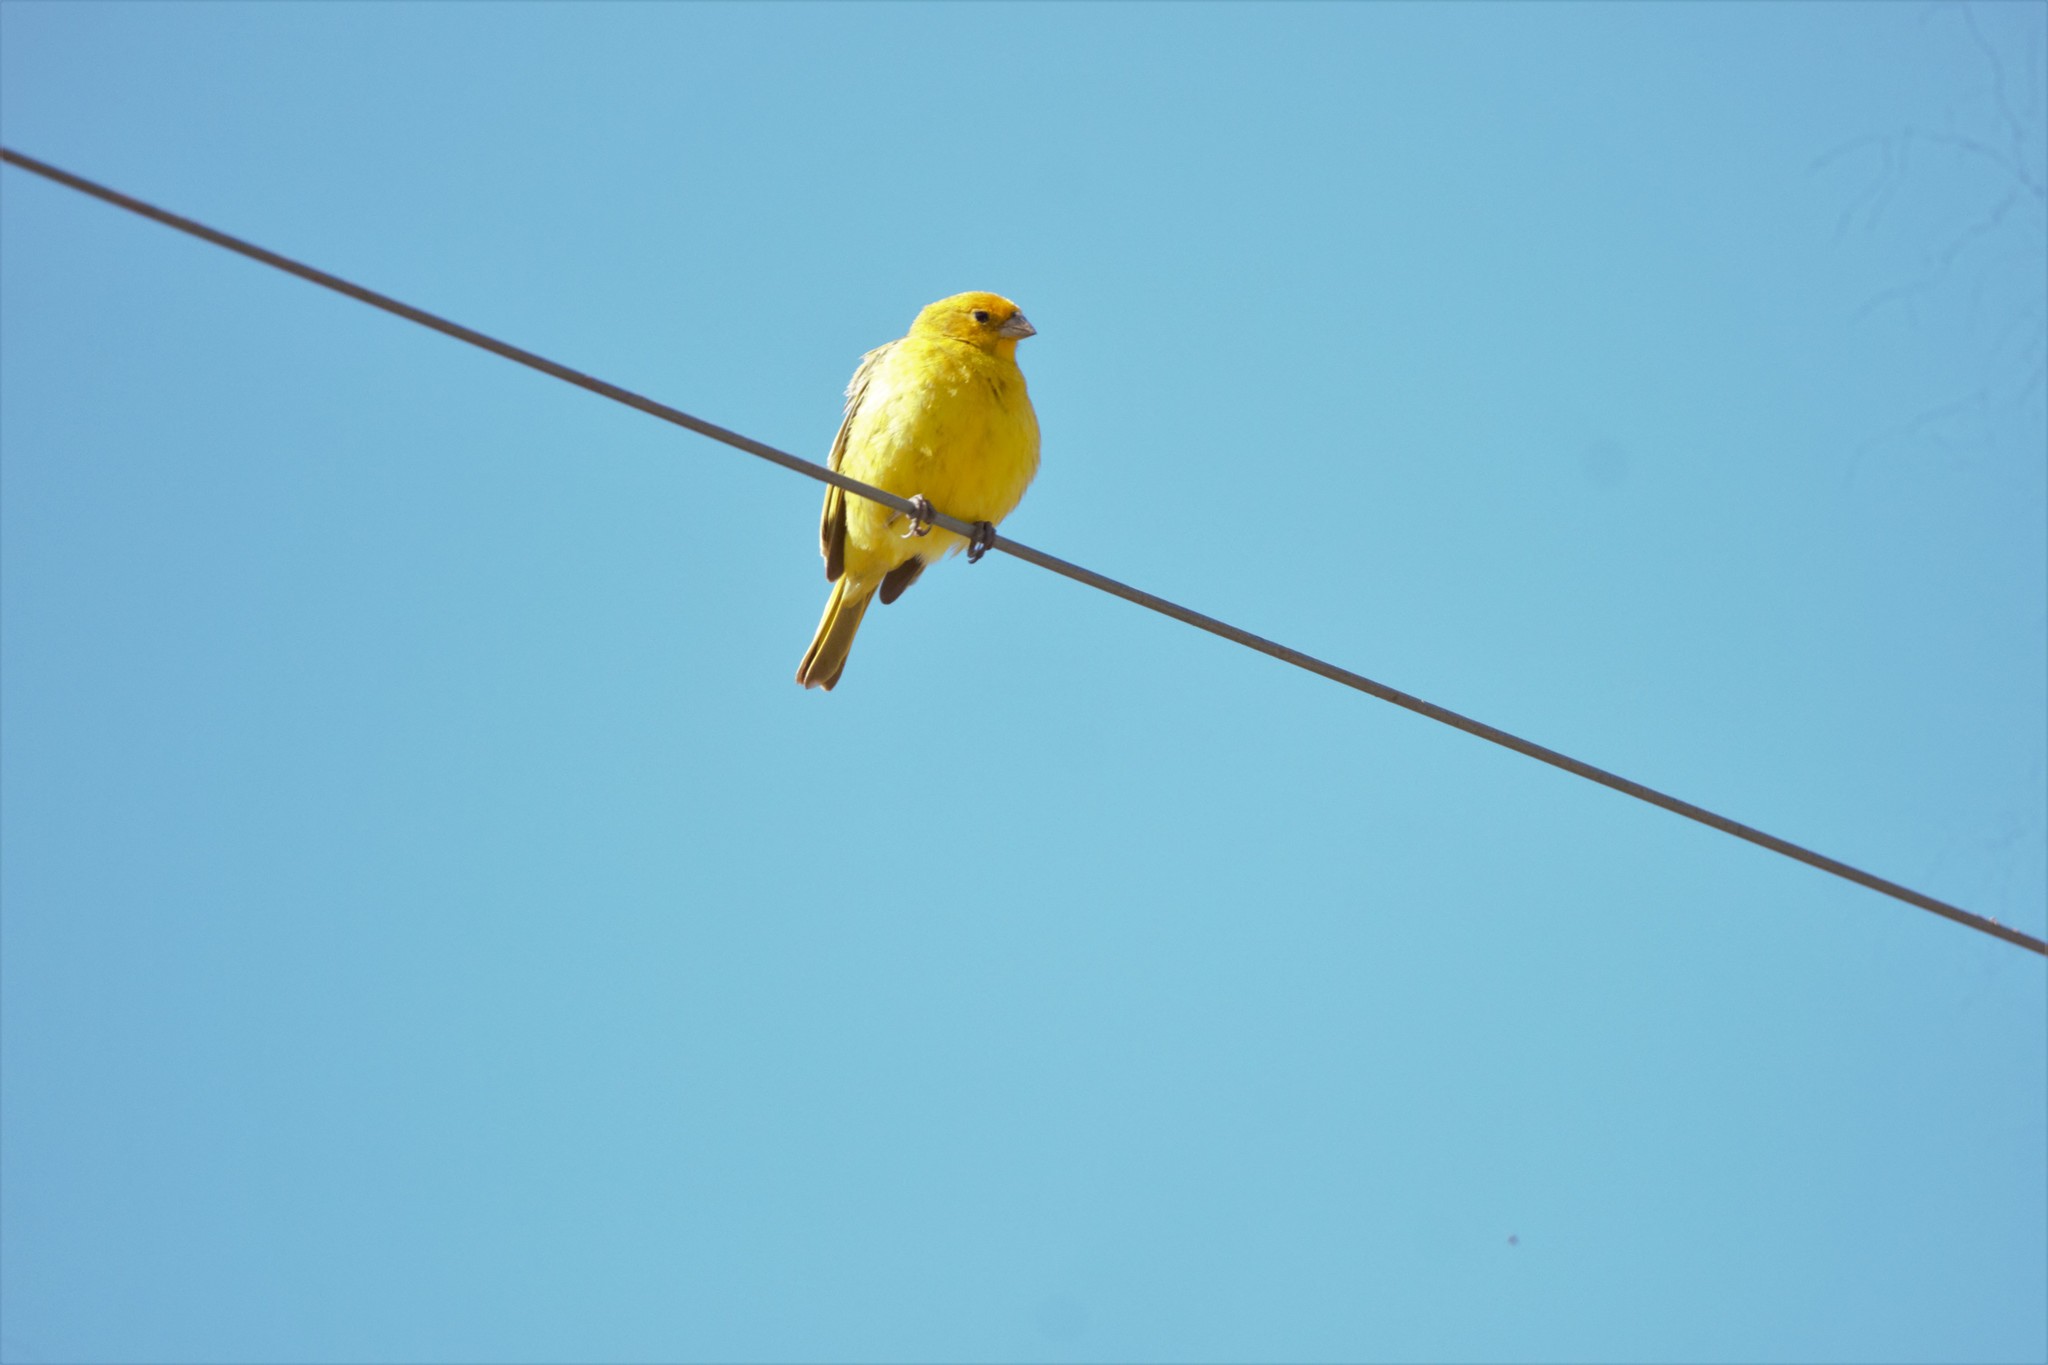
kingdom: Animalia
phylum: Chordata
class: Aves
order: Passeriformes
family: Thraupidae
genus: Sicalis
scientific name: Sicalis flaveola
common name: Saffron finch
